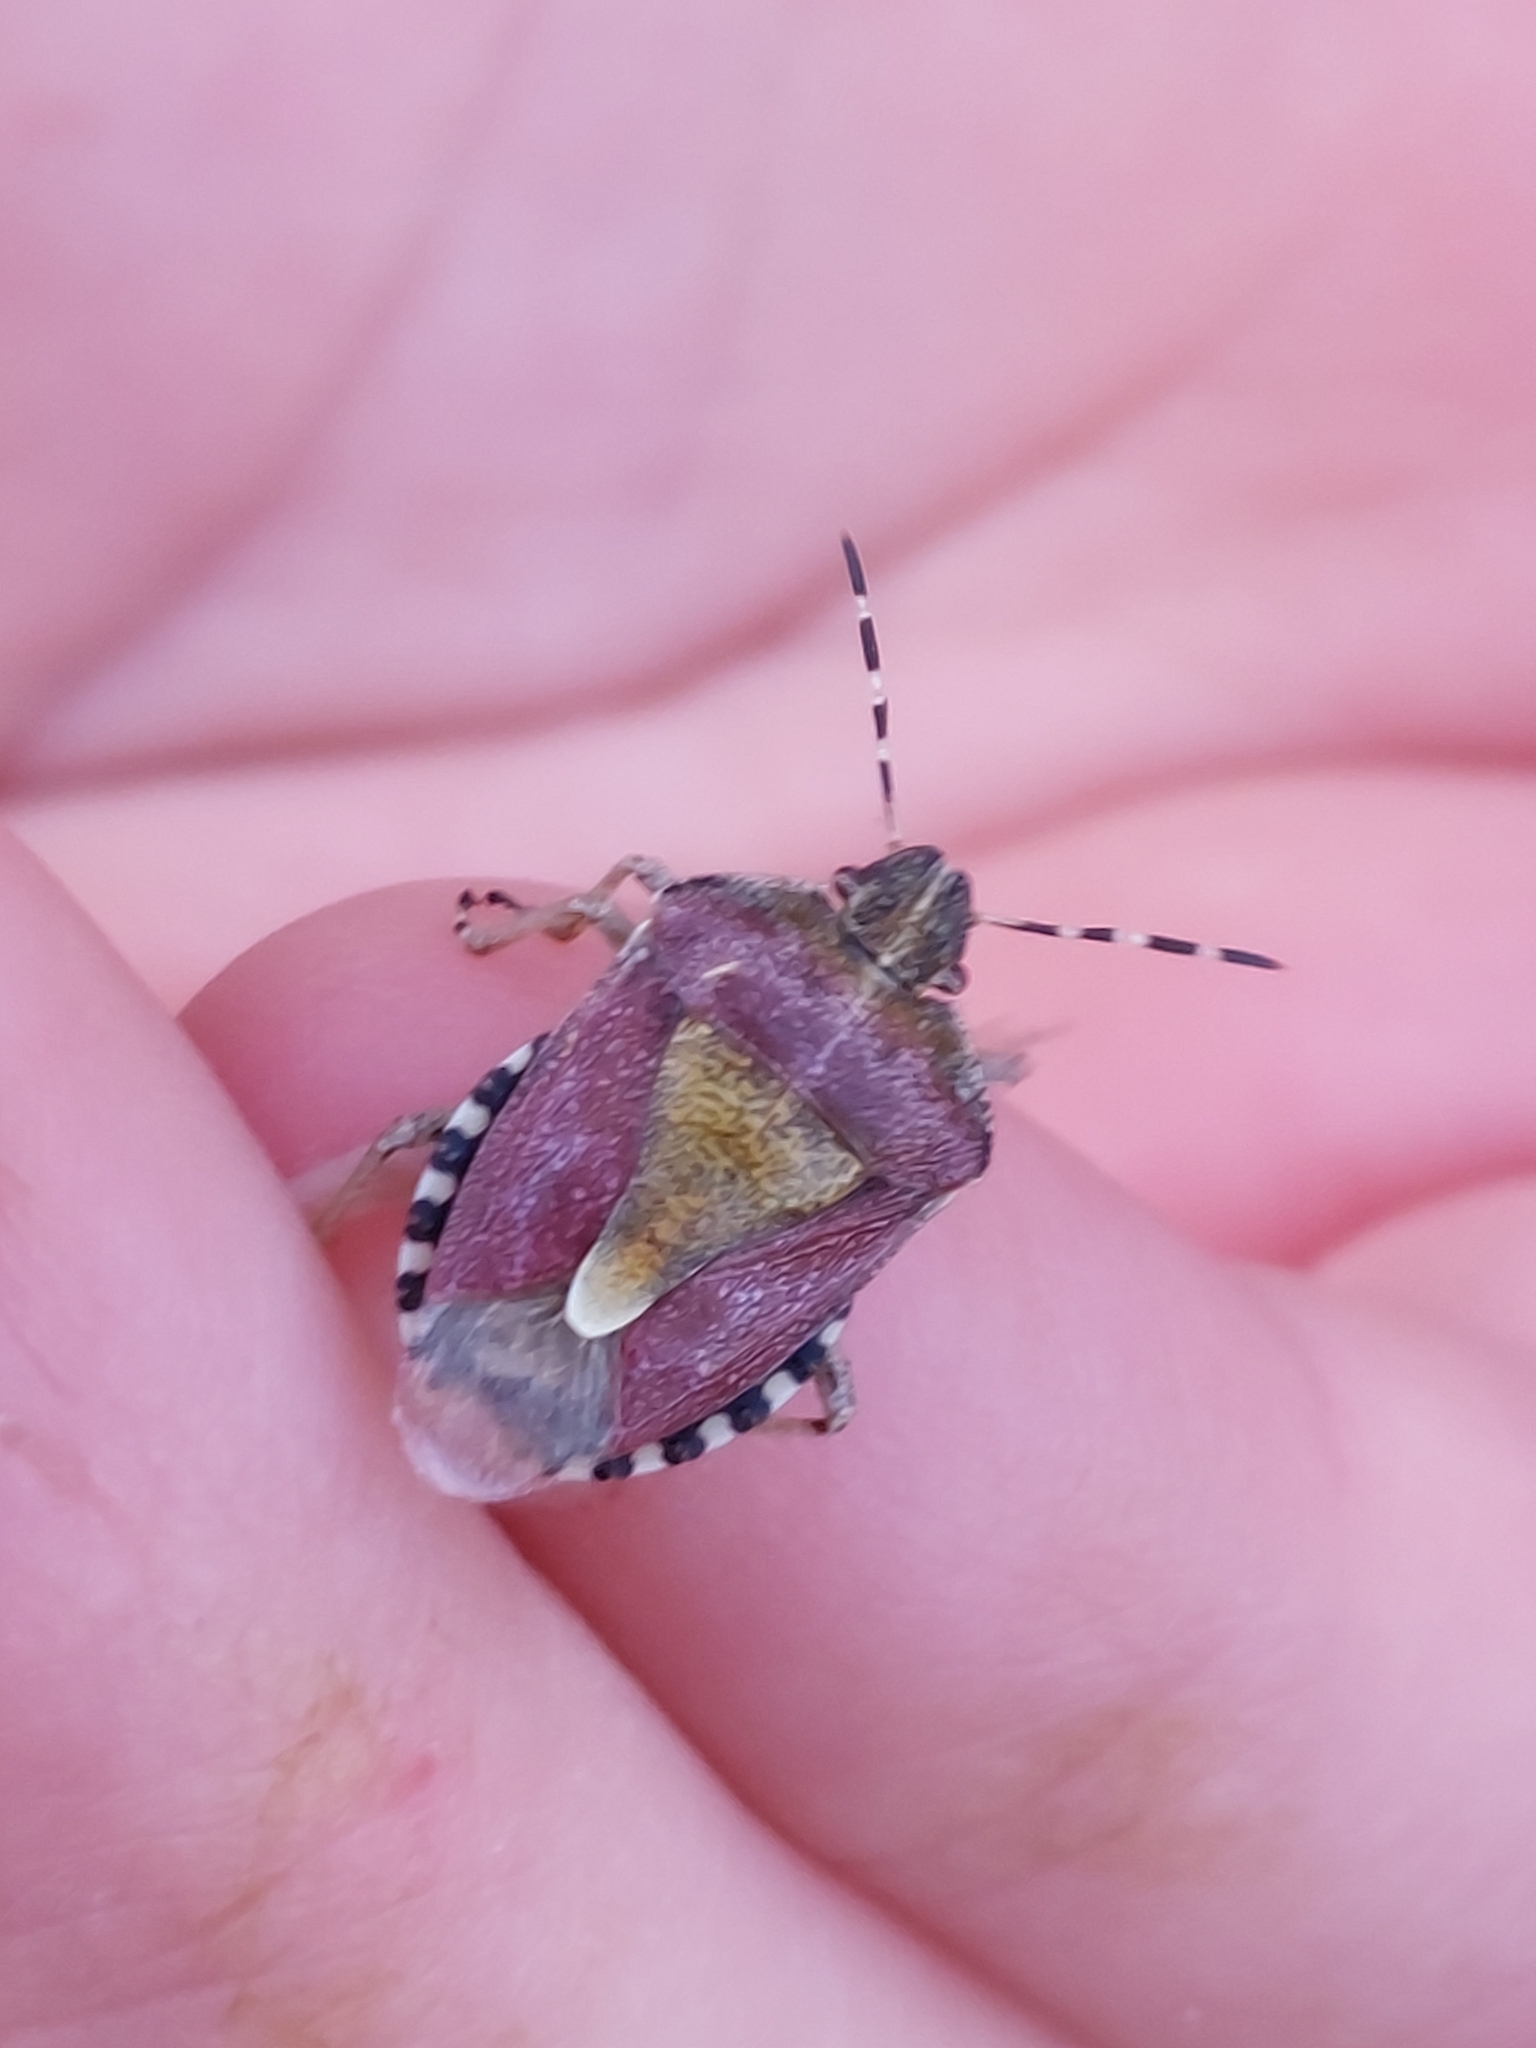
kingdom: Animalia
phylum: Arthropoda
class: Insecta
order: Hemiptera
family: Pentatomidae
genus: Dolycoris
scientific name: Dolycoris baccarum
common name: Sloe bug
